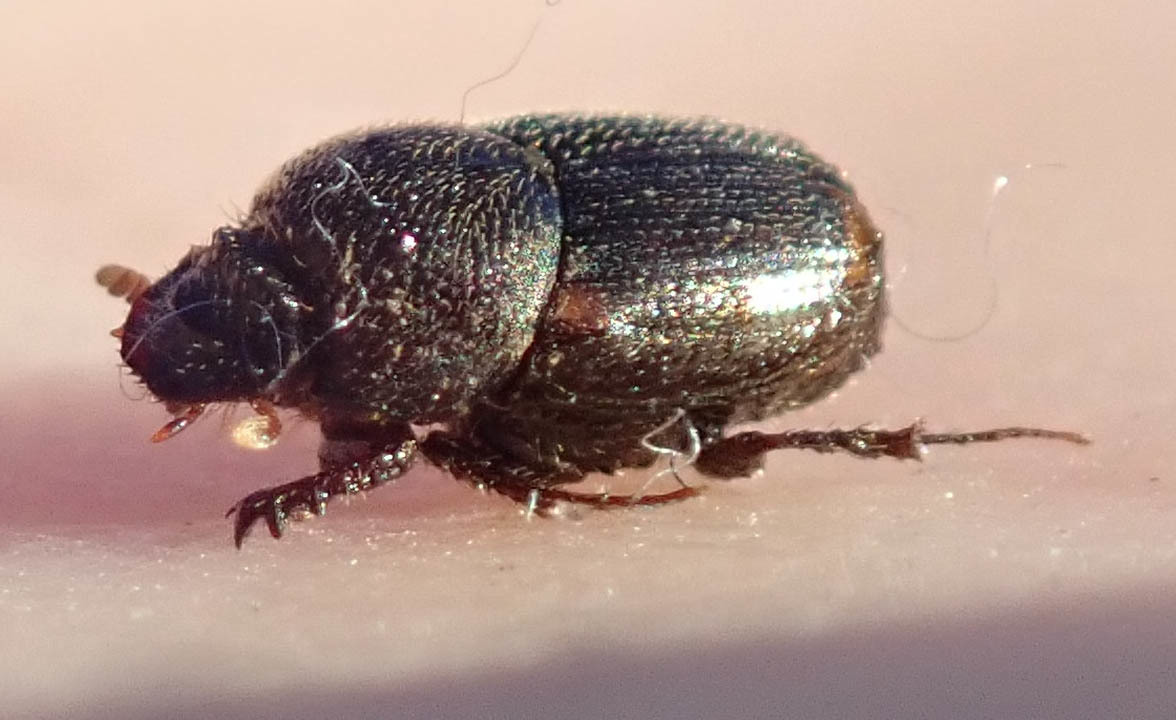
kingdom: Animalia
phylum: Arthropoda
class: Insecta
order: Coleoptera
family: Scarabaeidae
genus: Onthophagus
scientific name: Onthophagus vinctus
